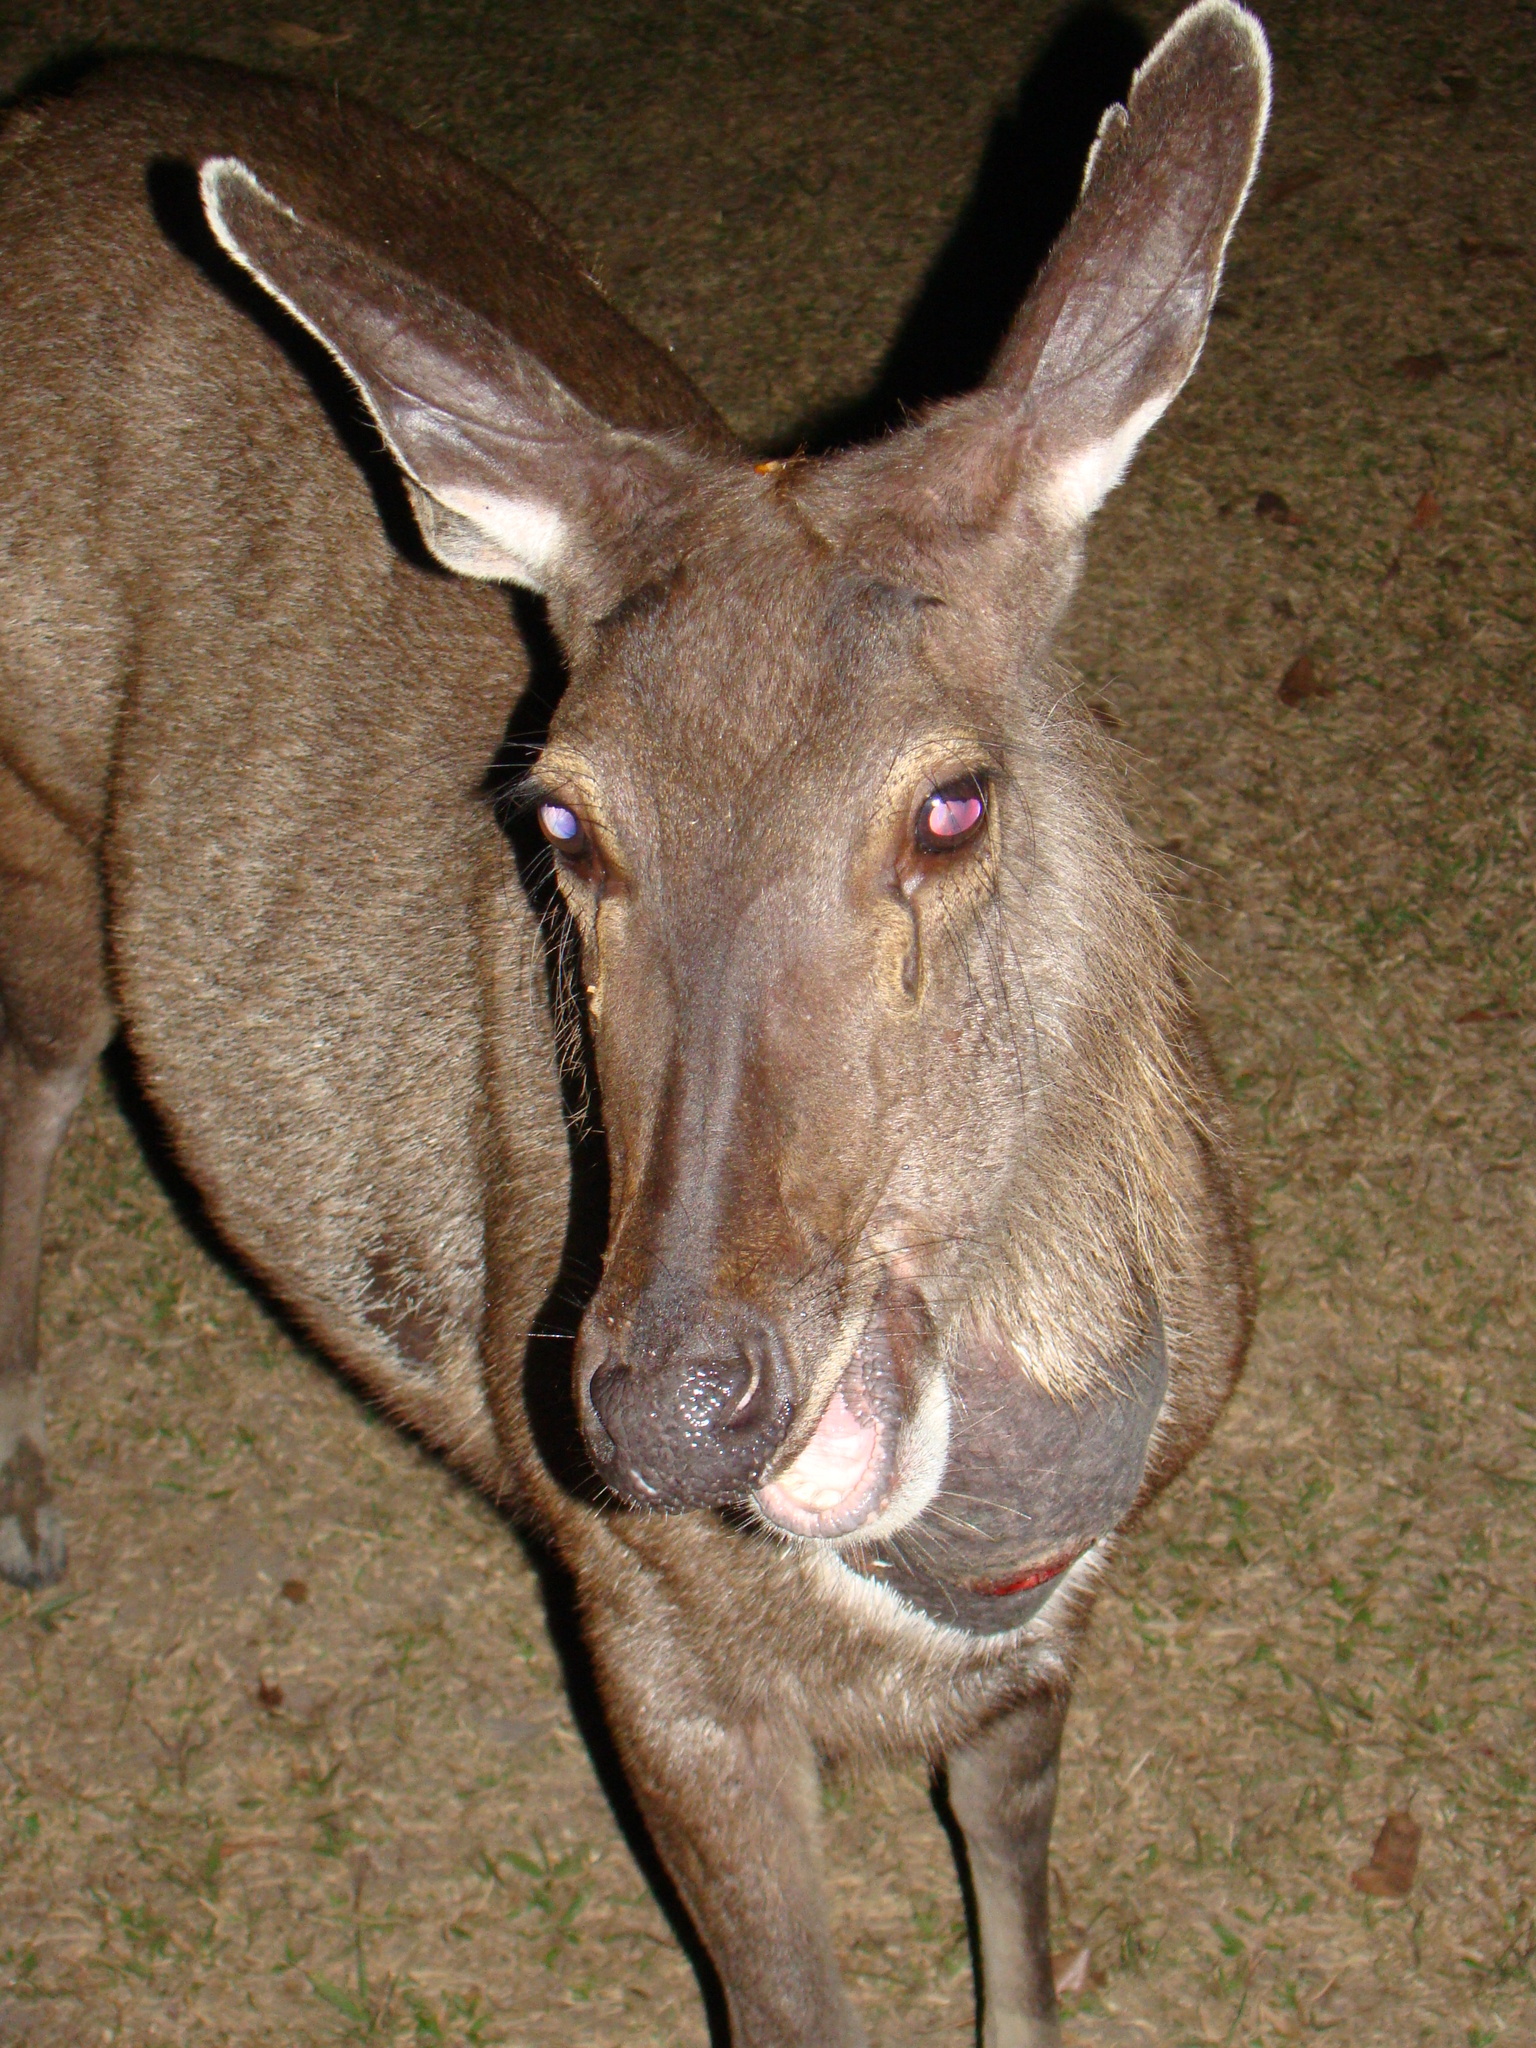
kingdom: Animalia
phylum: Chordata
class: Mammalia
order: Artiodactyla
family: Cervidae
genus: Rusa
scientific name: Rusa unicolor
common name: Sambar
